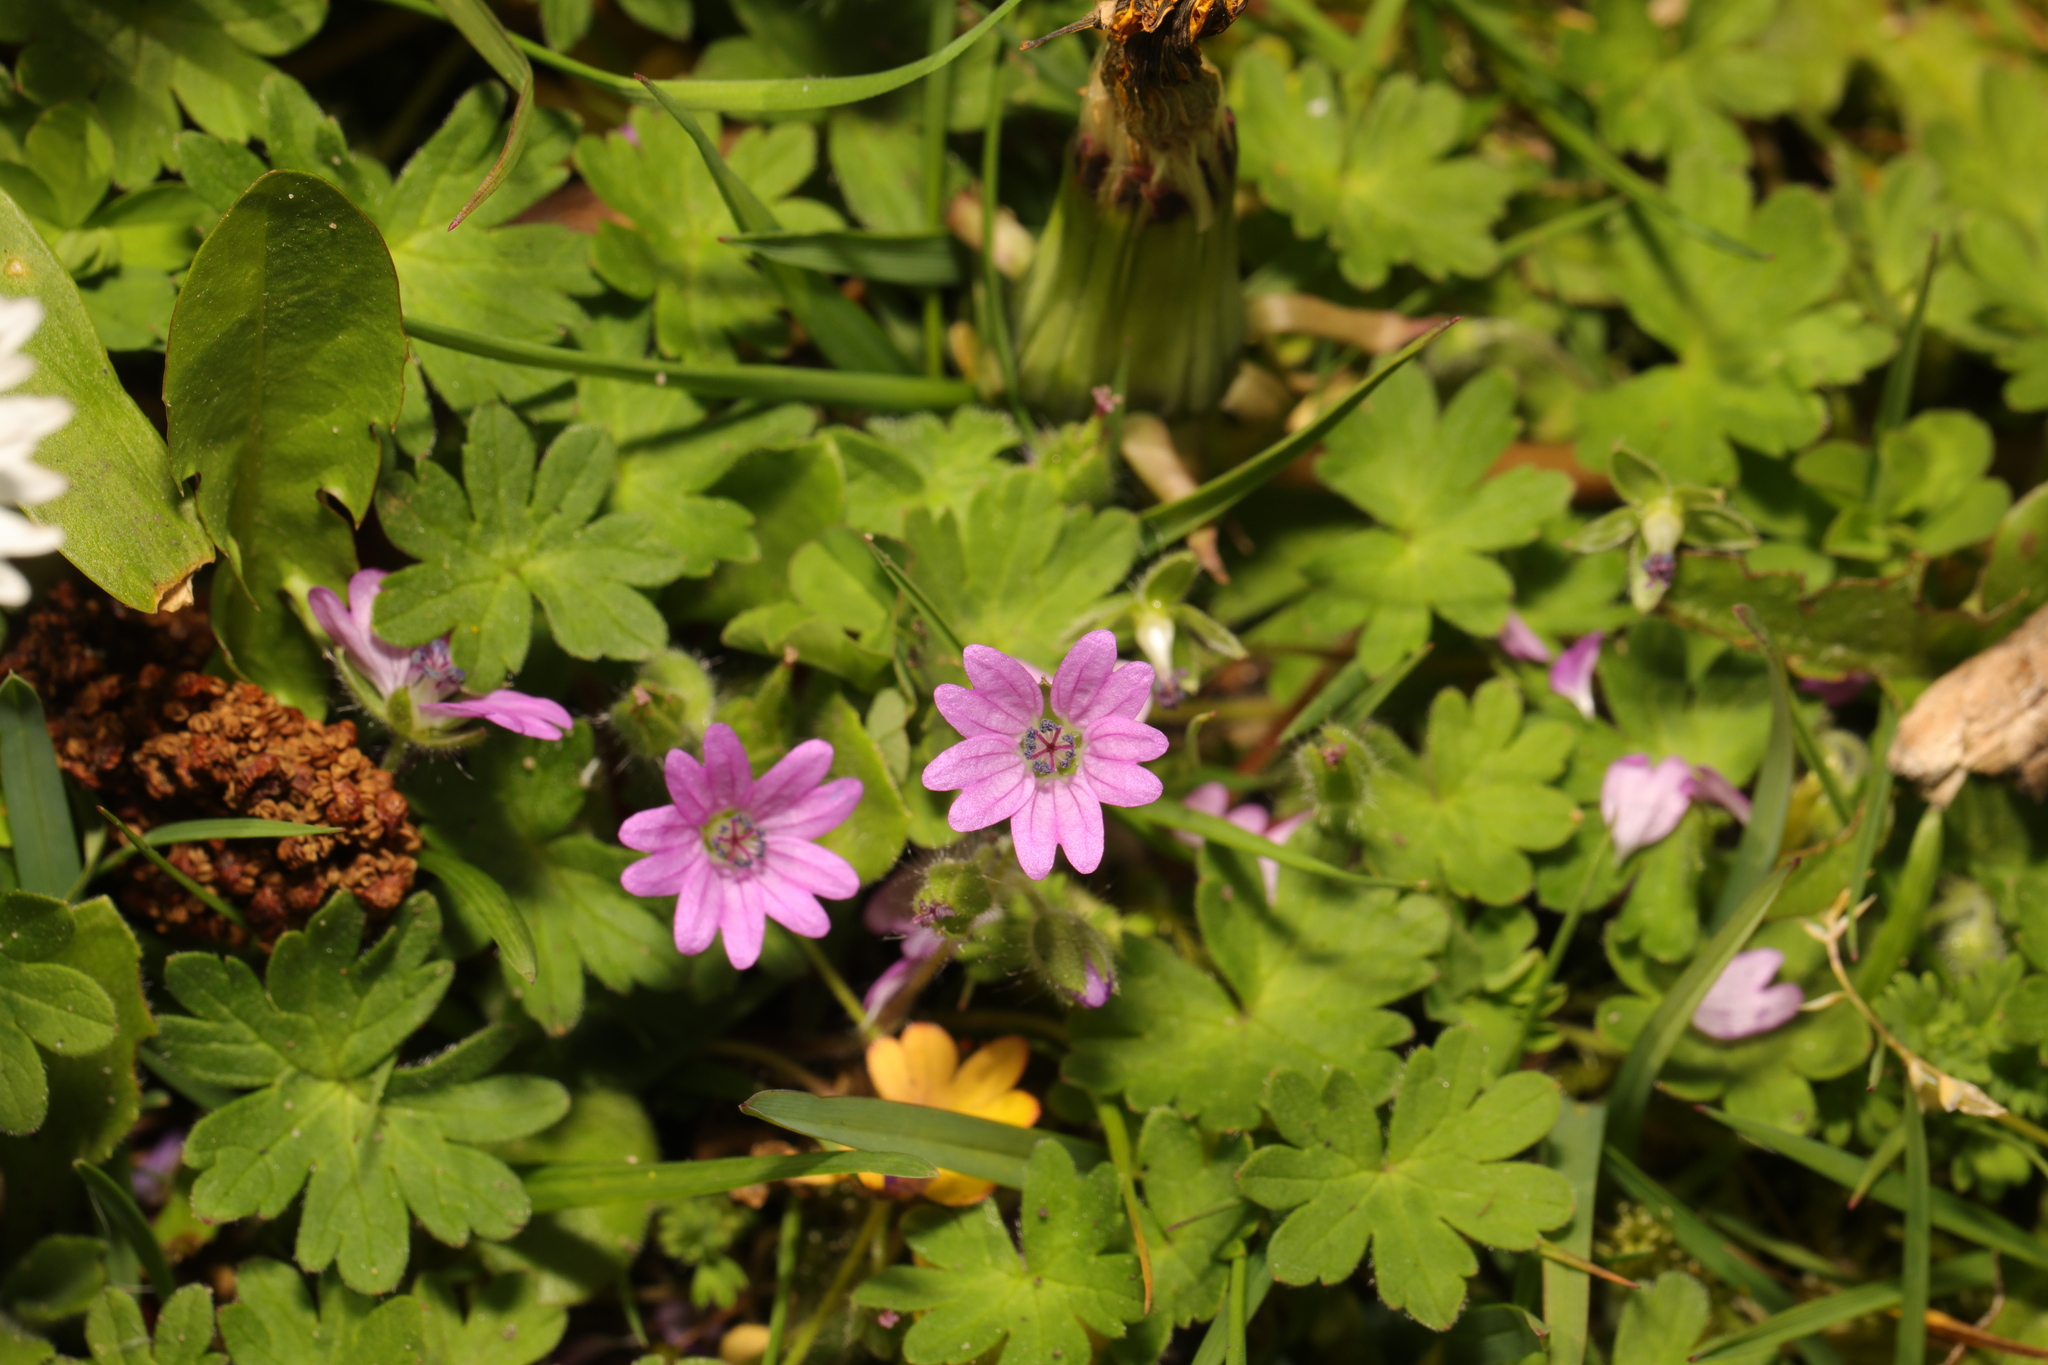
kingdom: Plantae
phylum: Tracheophyta
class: Magnoliopsida
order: Geraniales
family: Geraniaceae
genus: Geranium
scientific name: Geranium molle
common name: Dove's-foot crane's-bill
